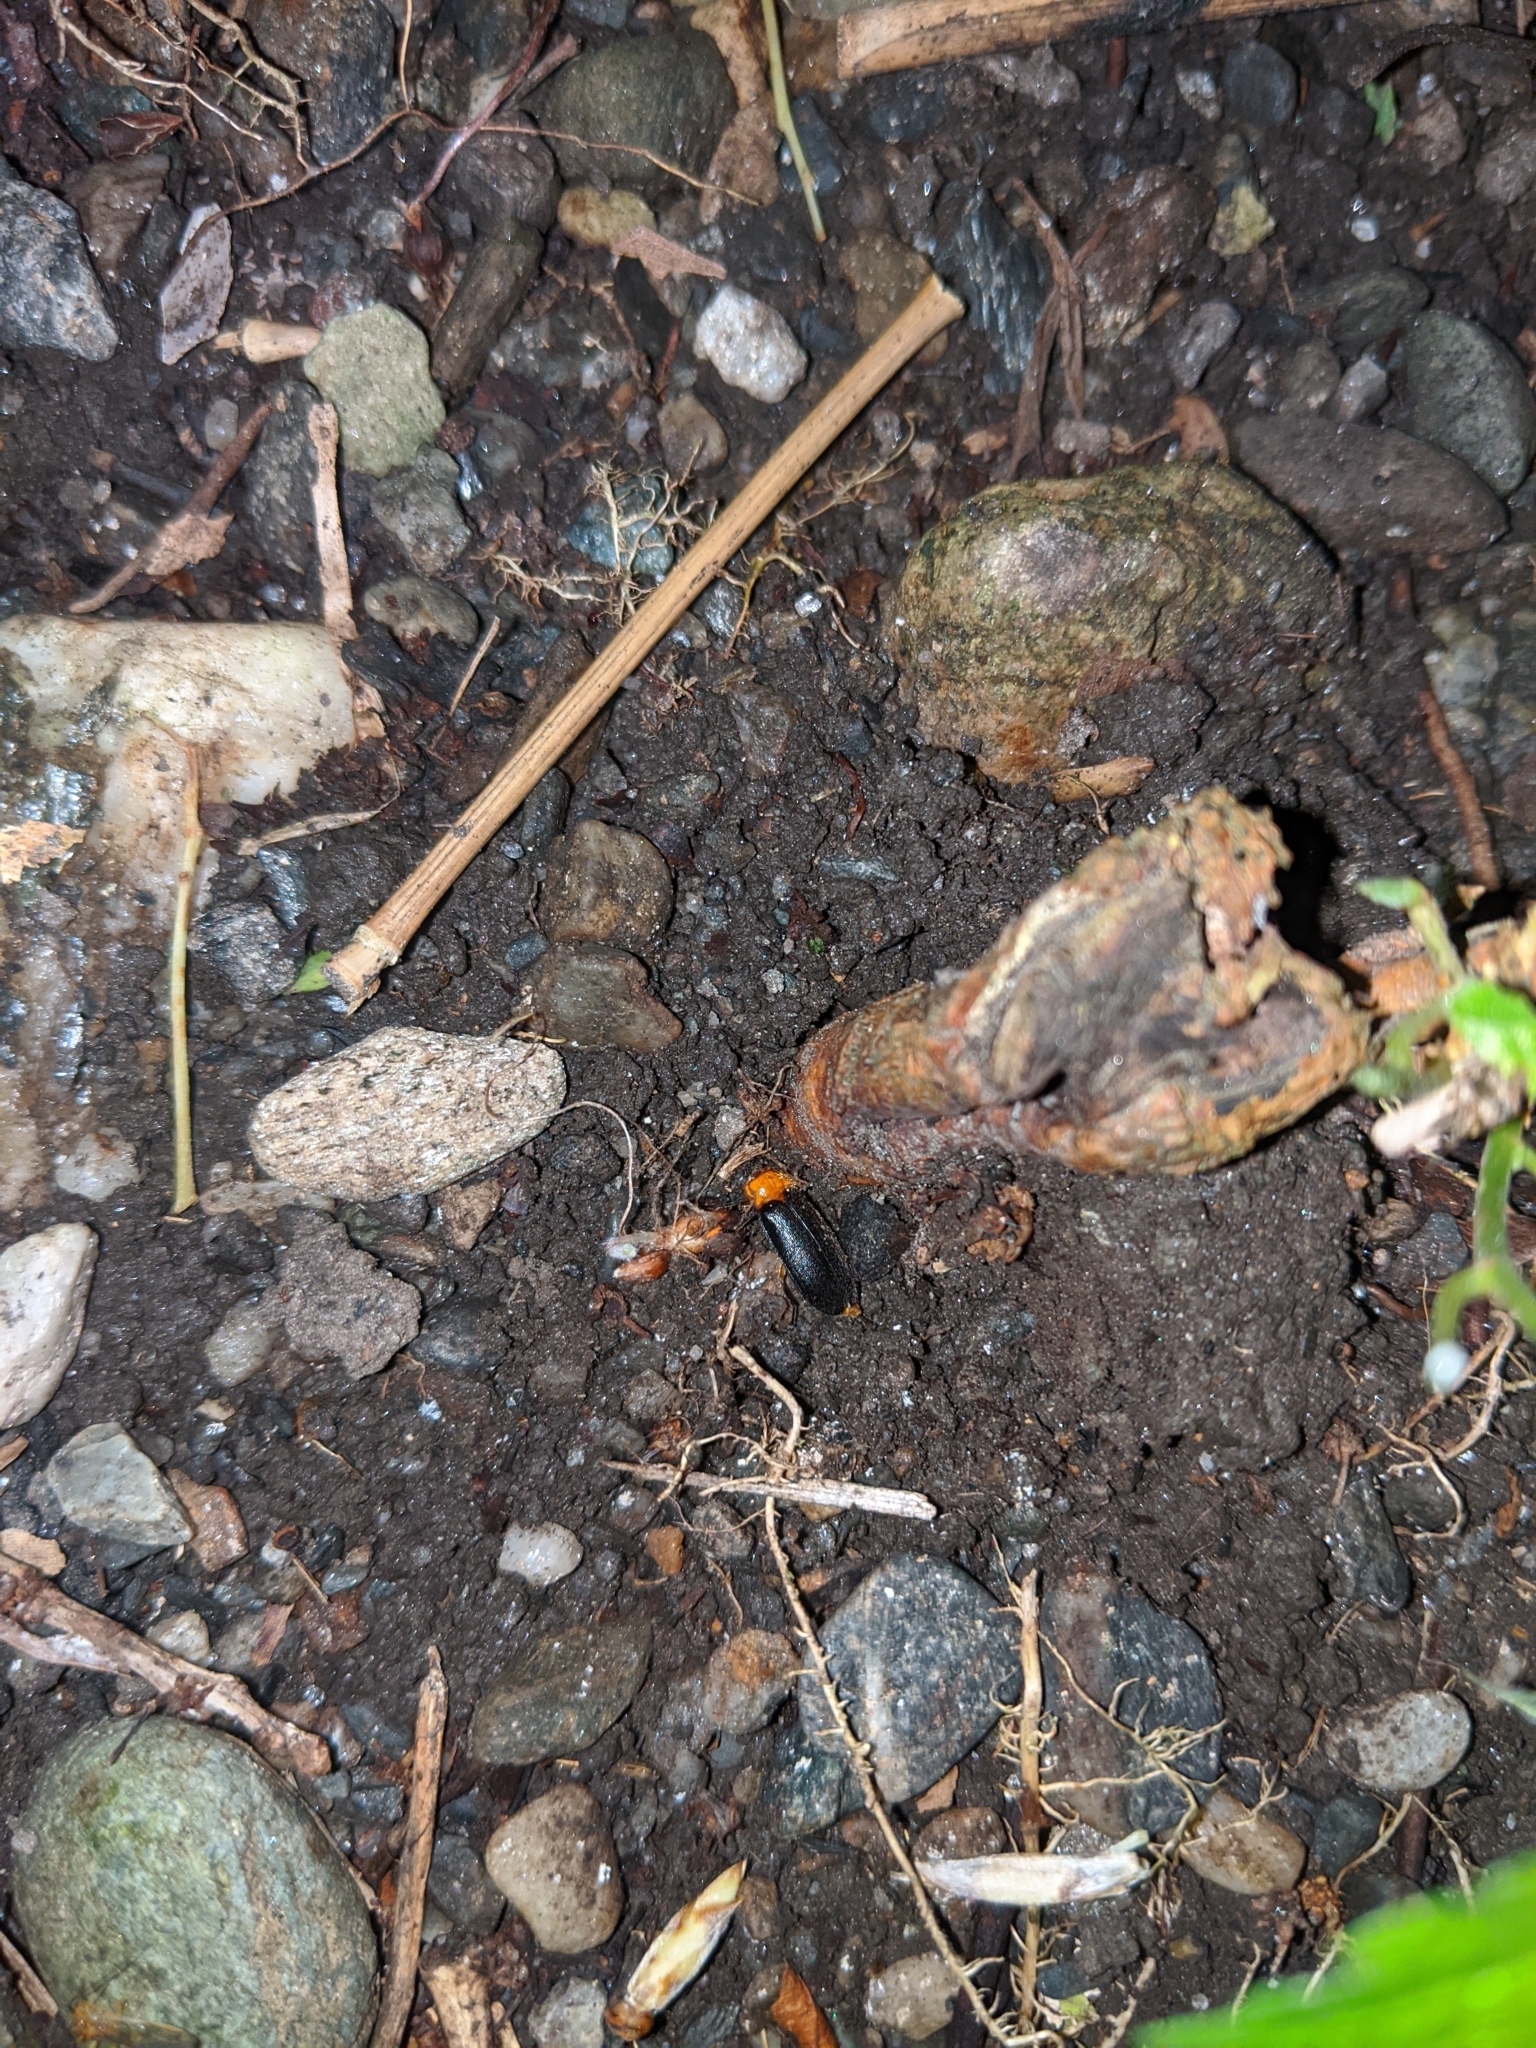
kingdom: Animalia
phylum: Arthropoda
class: Insecta
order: Coleoptera
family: Lampyridae
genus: Abscondita
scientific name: Abscondita cerata
